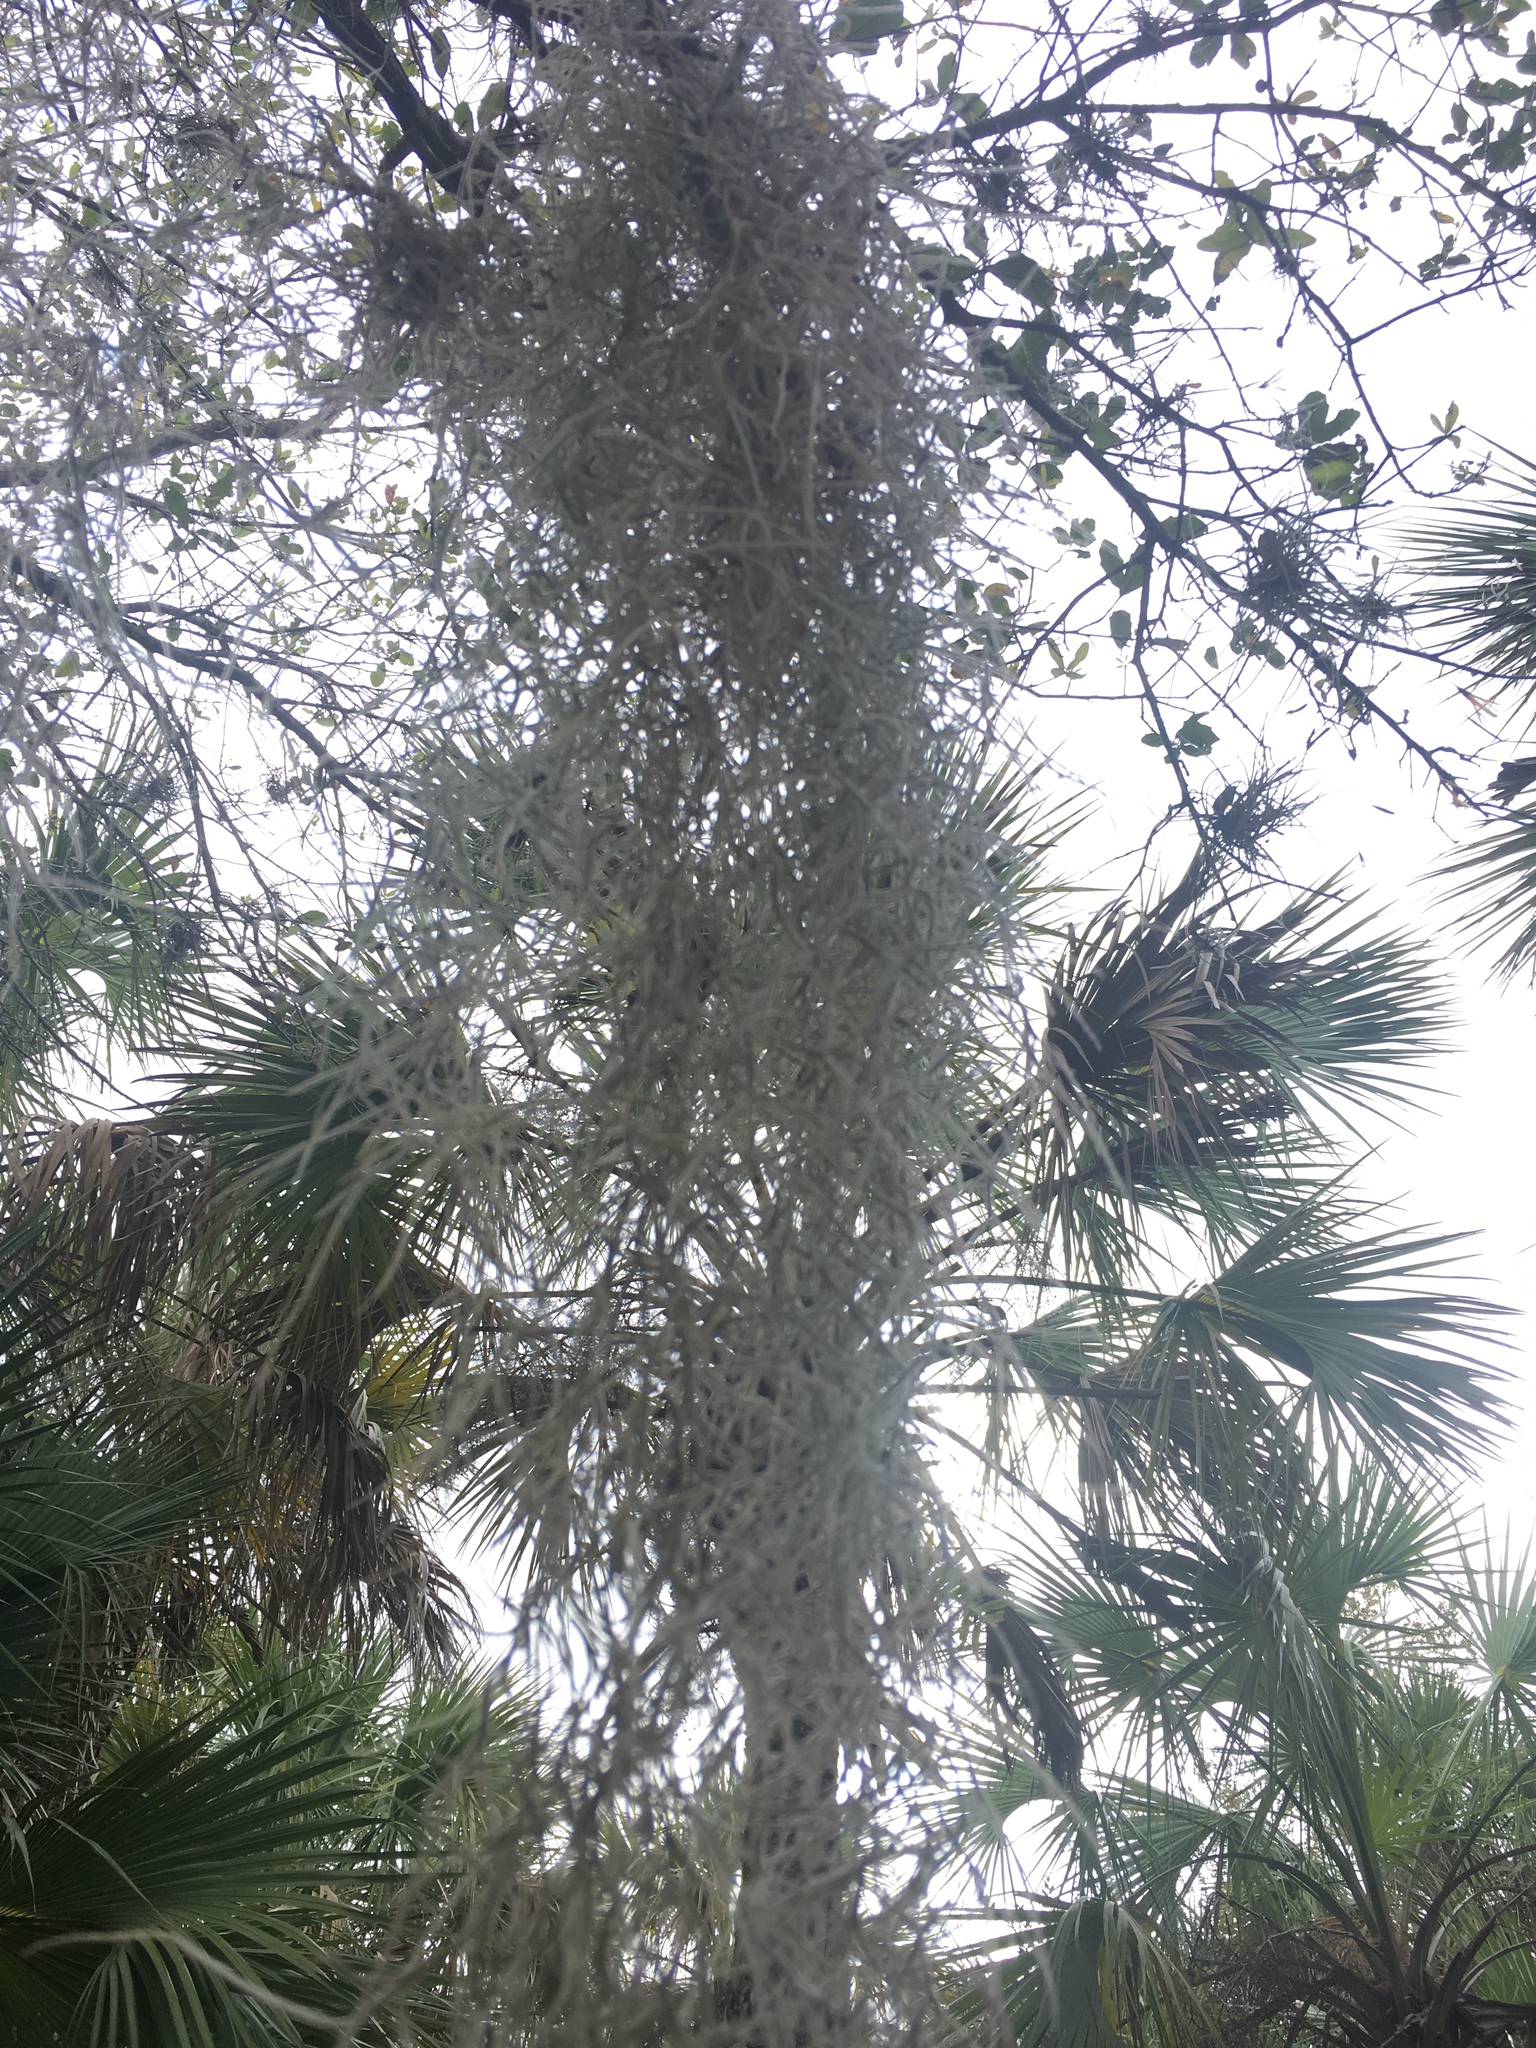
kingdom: Plantae
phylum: Tracheophyta
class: Liliopsida
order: Poales
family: Bromeliaceae
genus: Tillandsia
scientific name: Tillandsia usneoides
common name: Spanish moss
